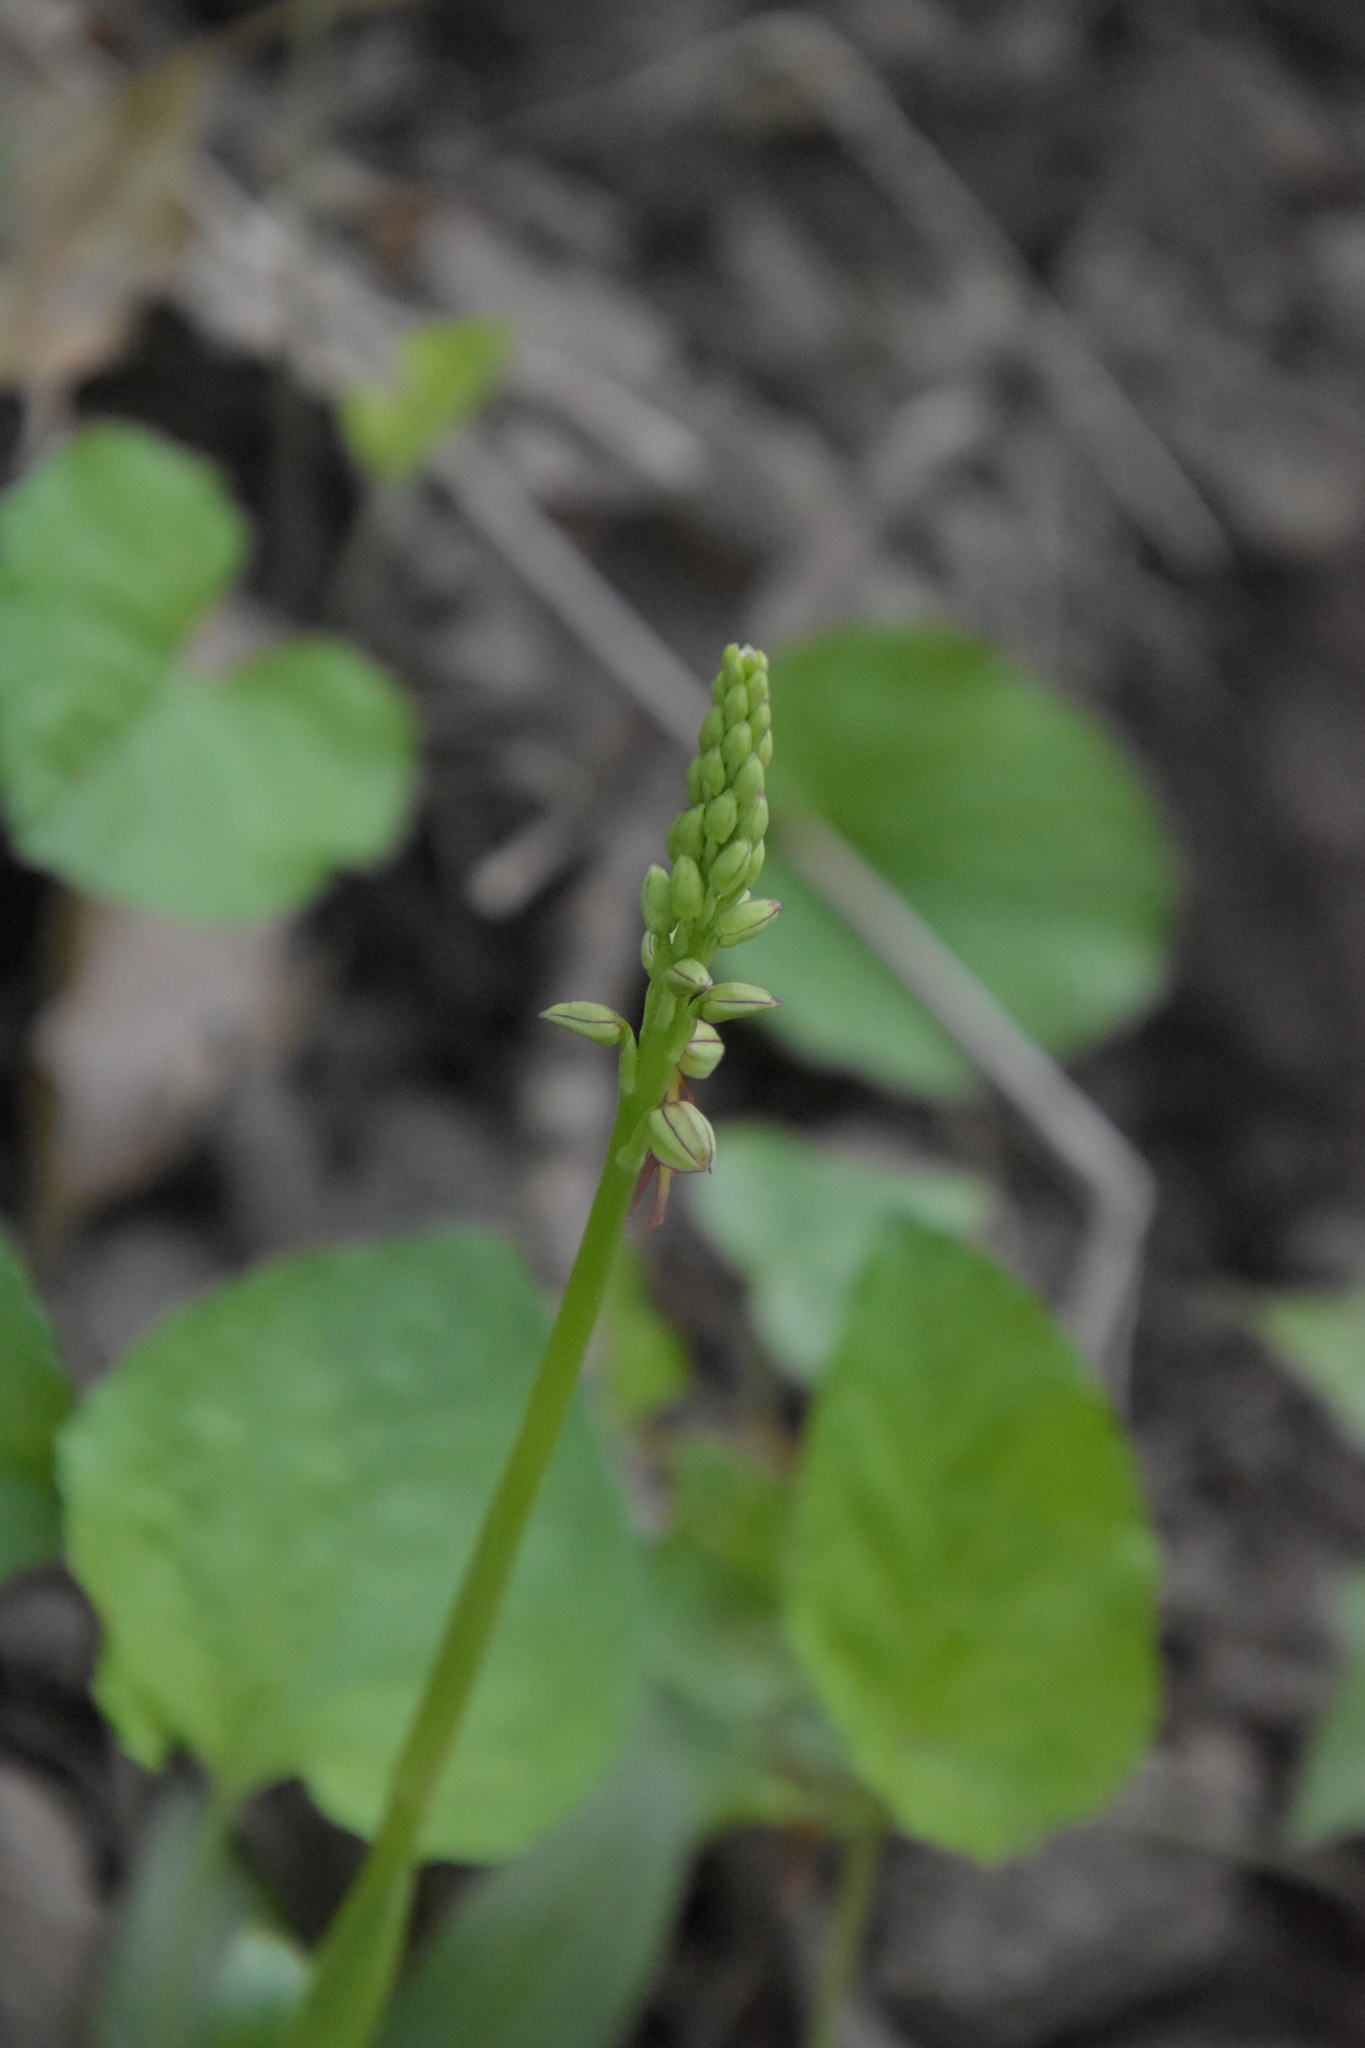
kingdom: Plantae
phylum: Tracheophyta
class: Liliopsida
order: Asparagales
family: Orchidaceae
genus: Orchis
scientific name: Orchis anthropophora
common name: Man orchid
